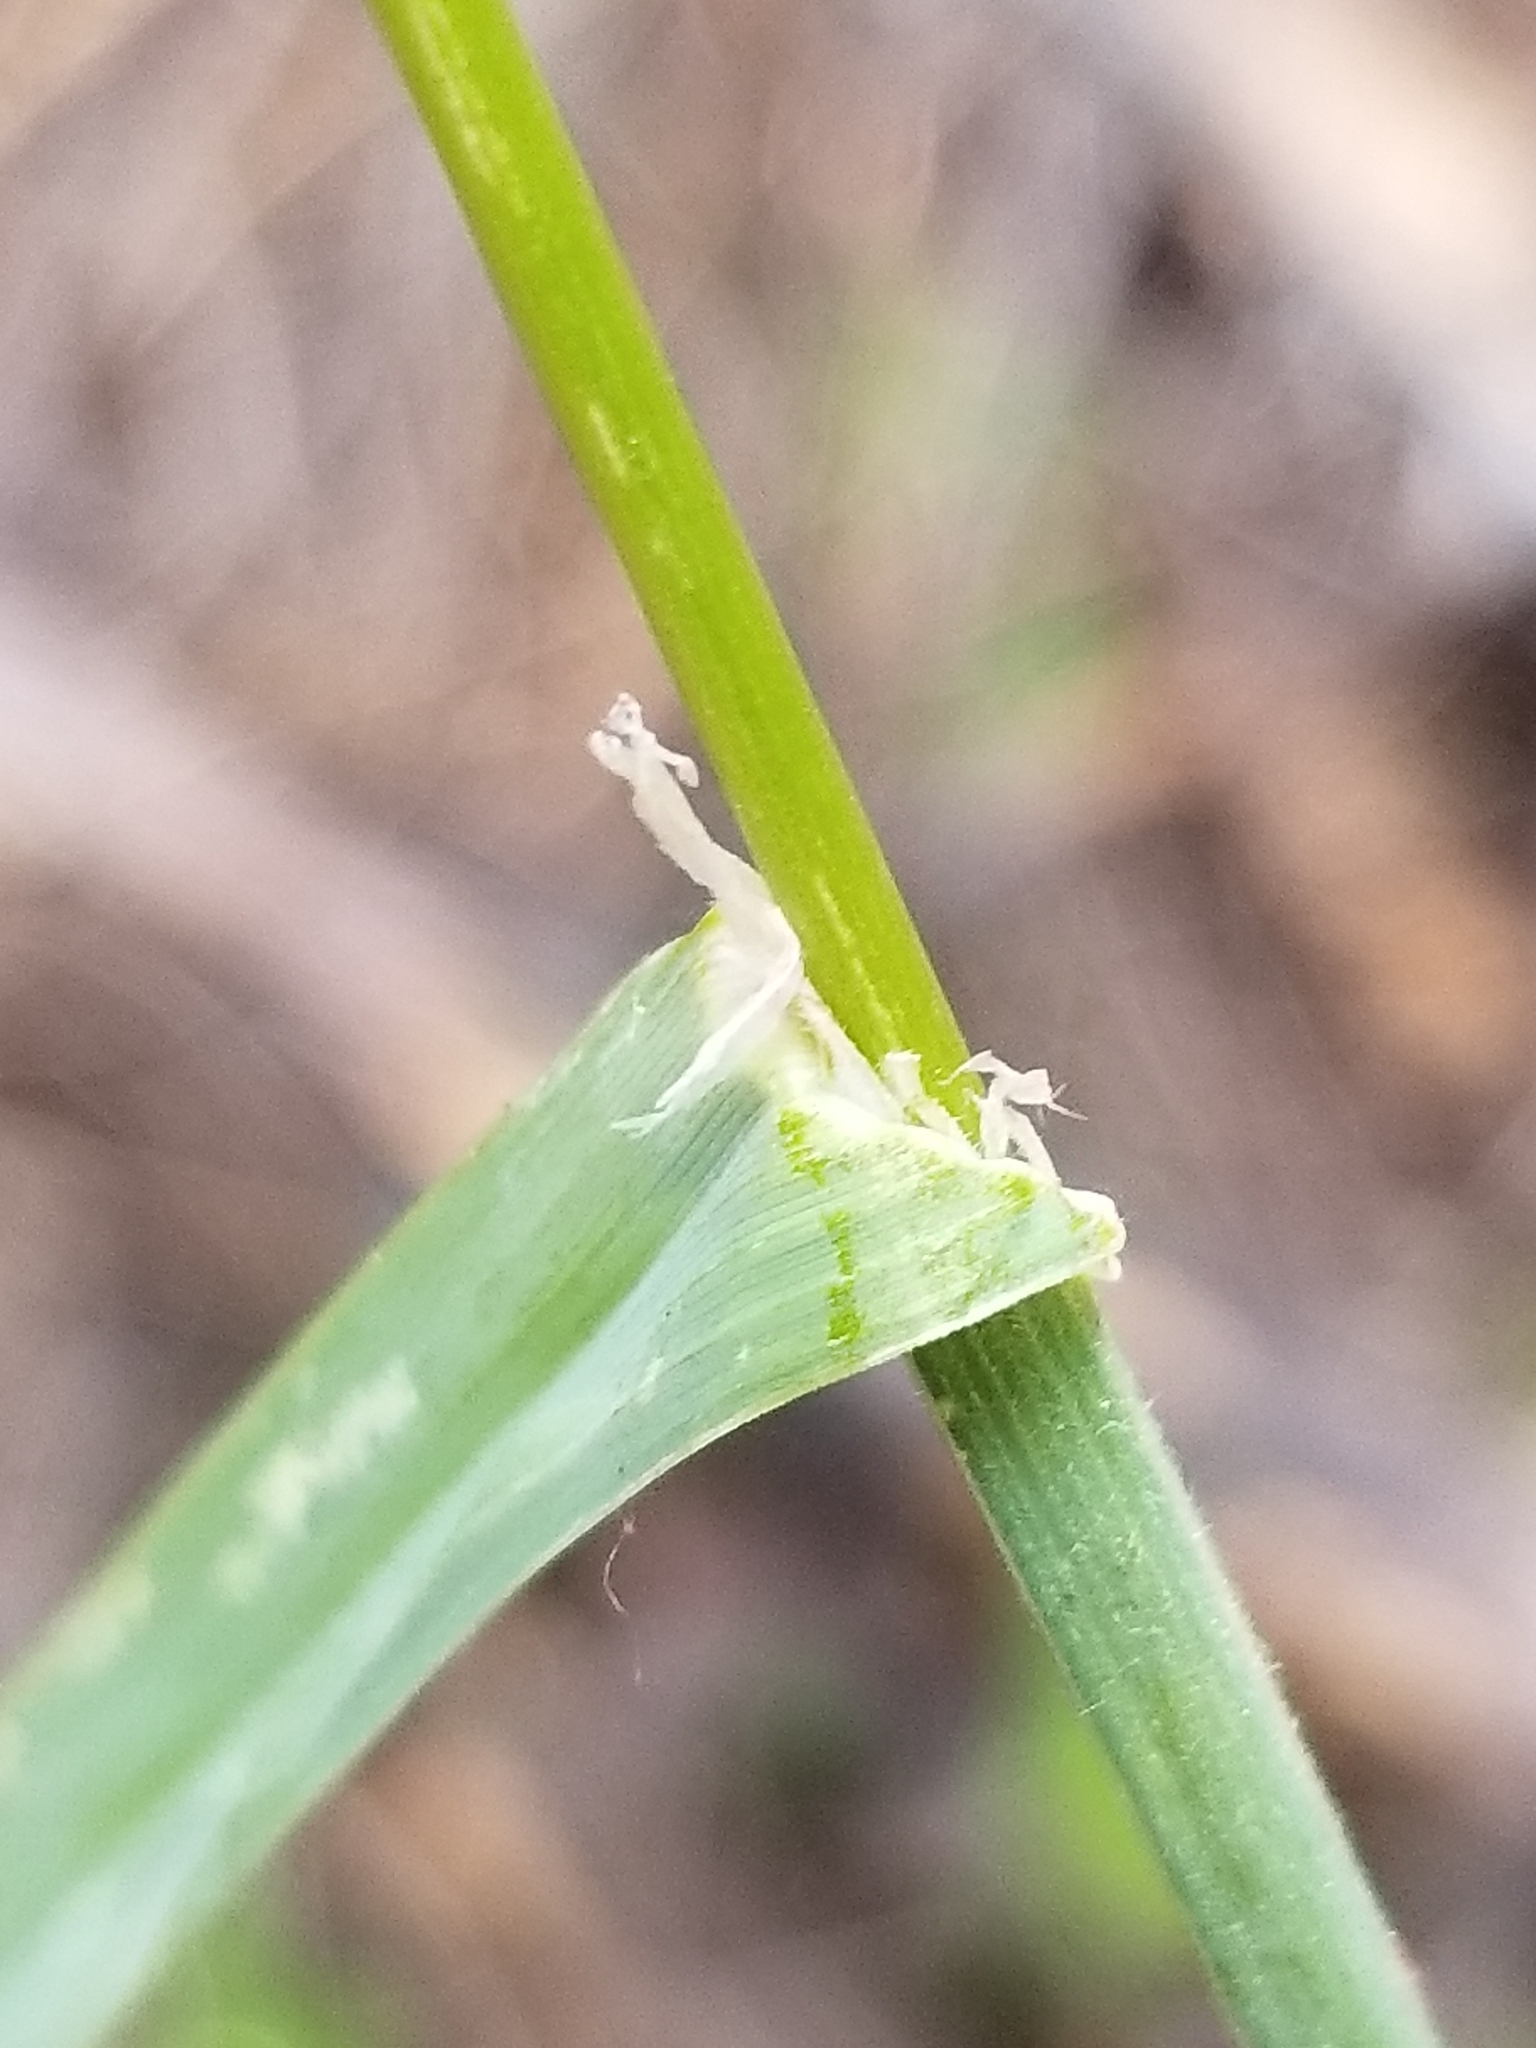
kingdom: Plantae
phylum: Tracheophyta
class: Liliopsida
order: Poales
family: Poaceae
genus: Dactylis
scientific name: Dactylis glomerata
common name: Orchardgrass
